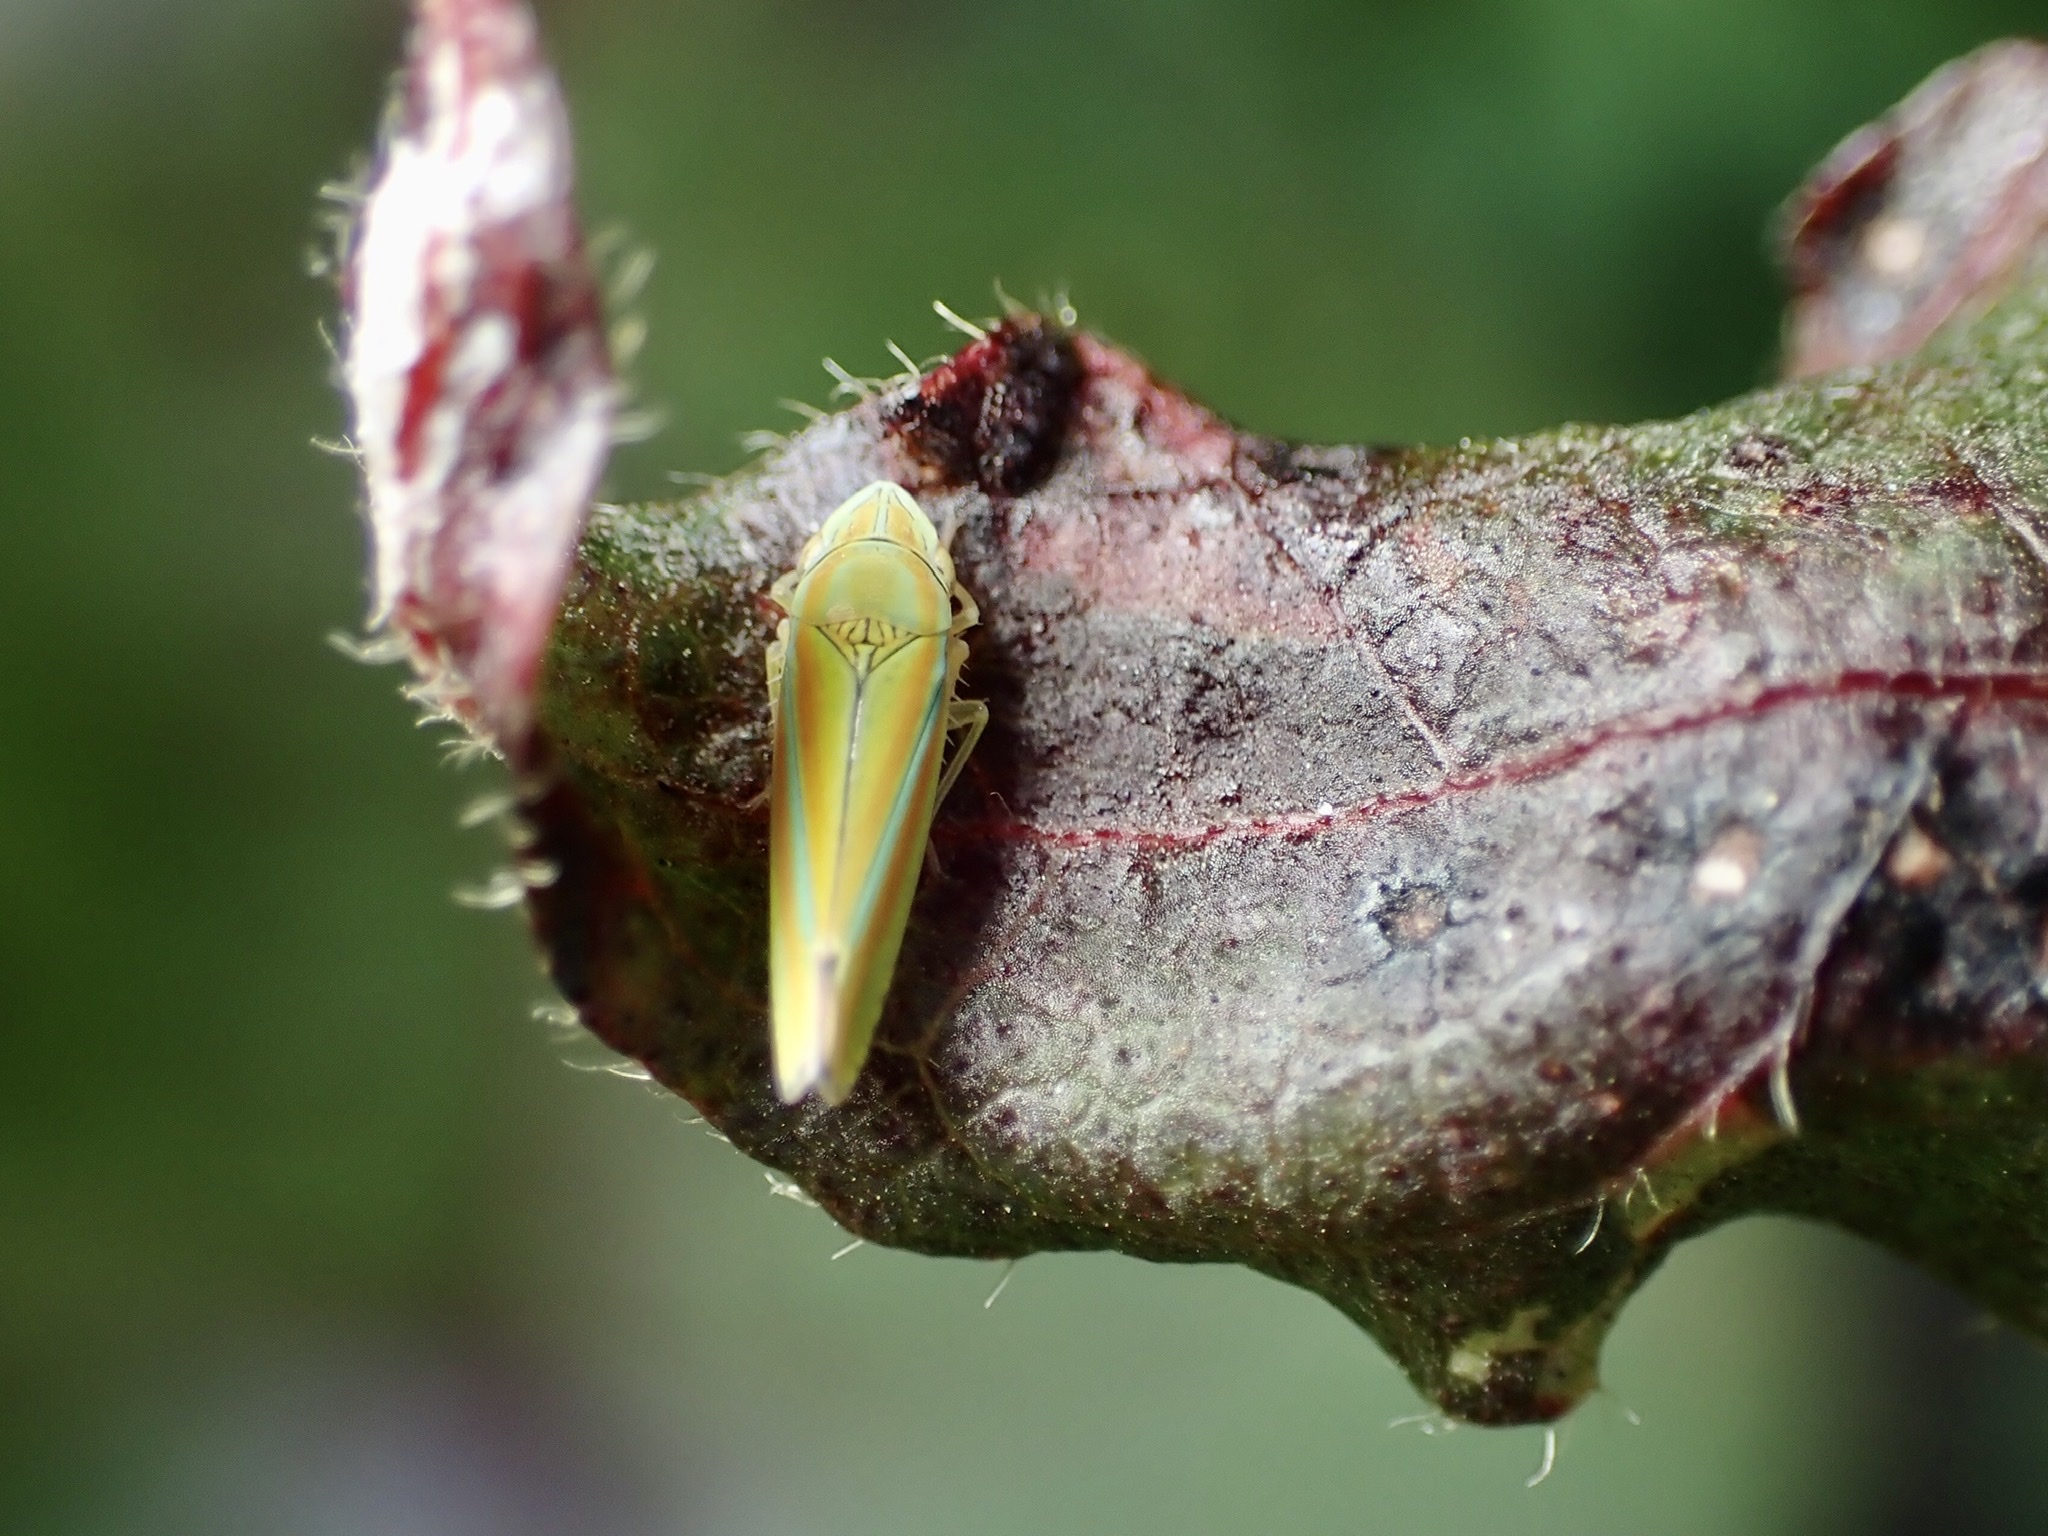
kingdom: Animalia
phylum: Arthropoda
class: Insecta
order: Hemiptera
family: Cicadellidae
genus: Graphocephala
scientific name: Graphocephala versuta
